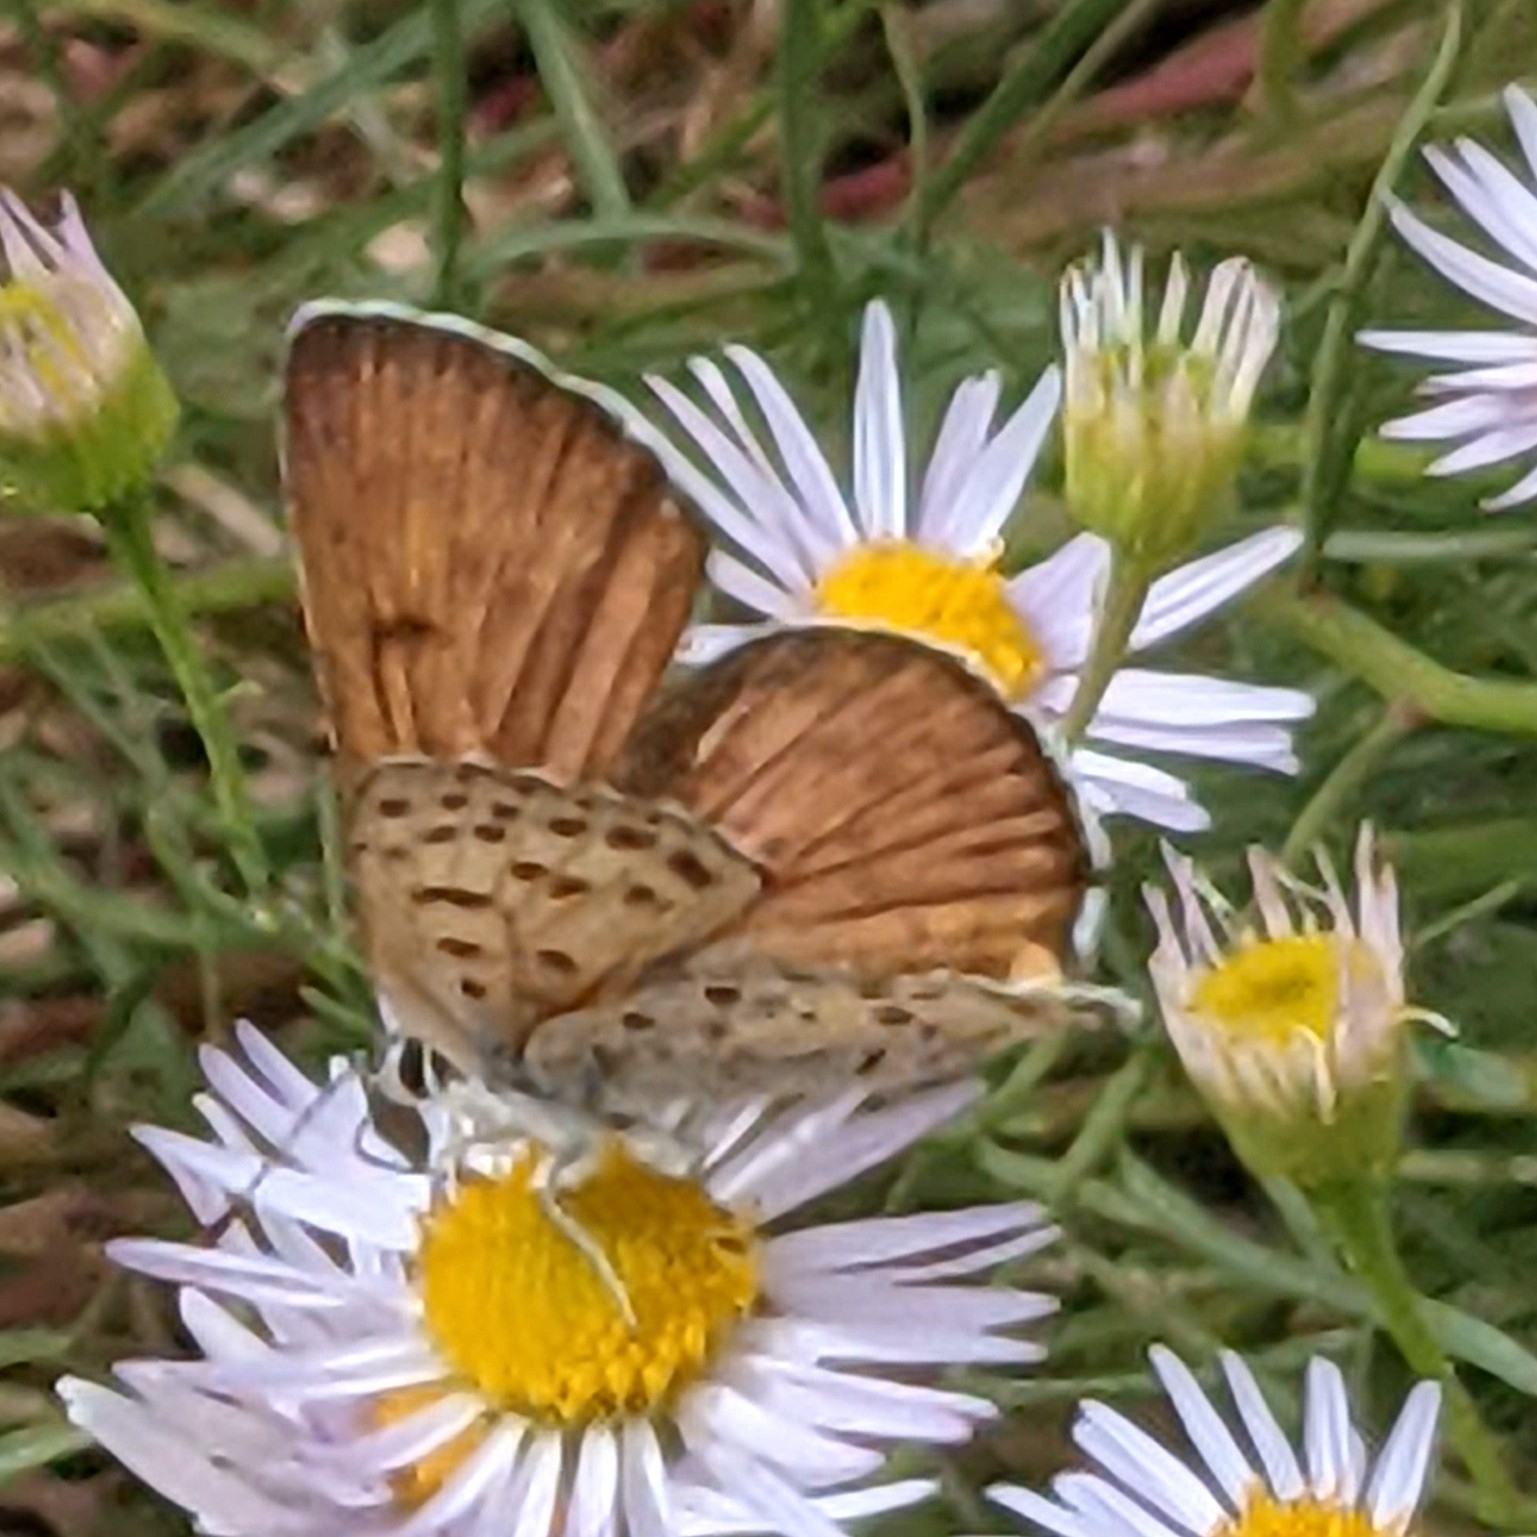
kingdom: Animalia
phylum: Arthropoda
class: Insecta
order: Lepidoptera
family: Lycaenidae
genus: Tharsalea
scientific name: Tharsalea gorgon
